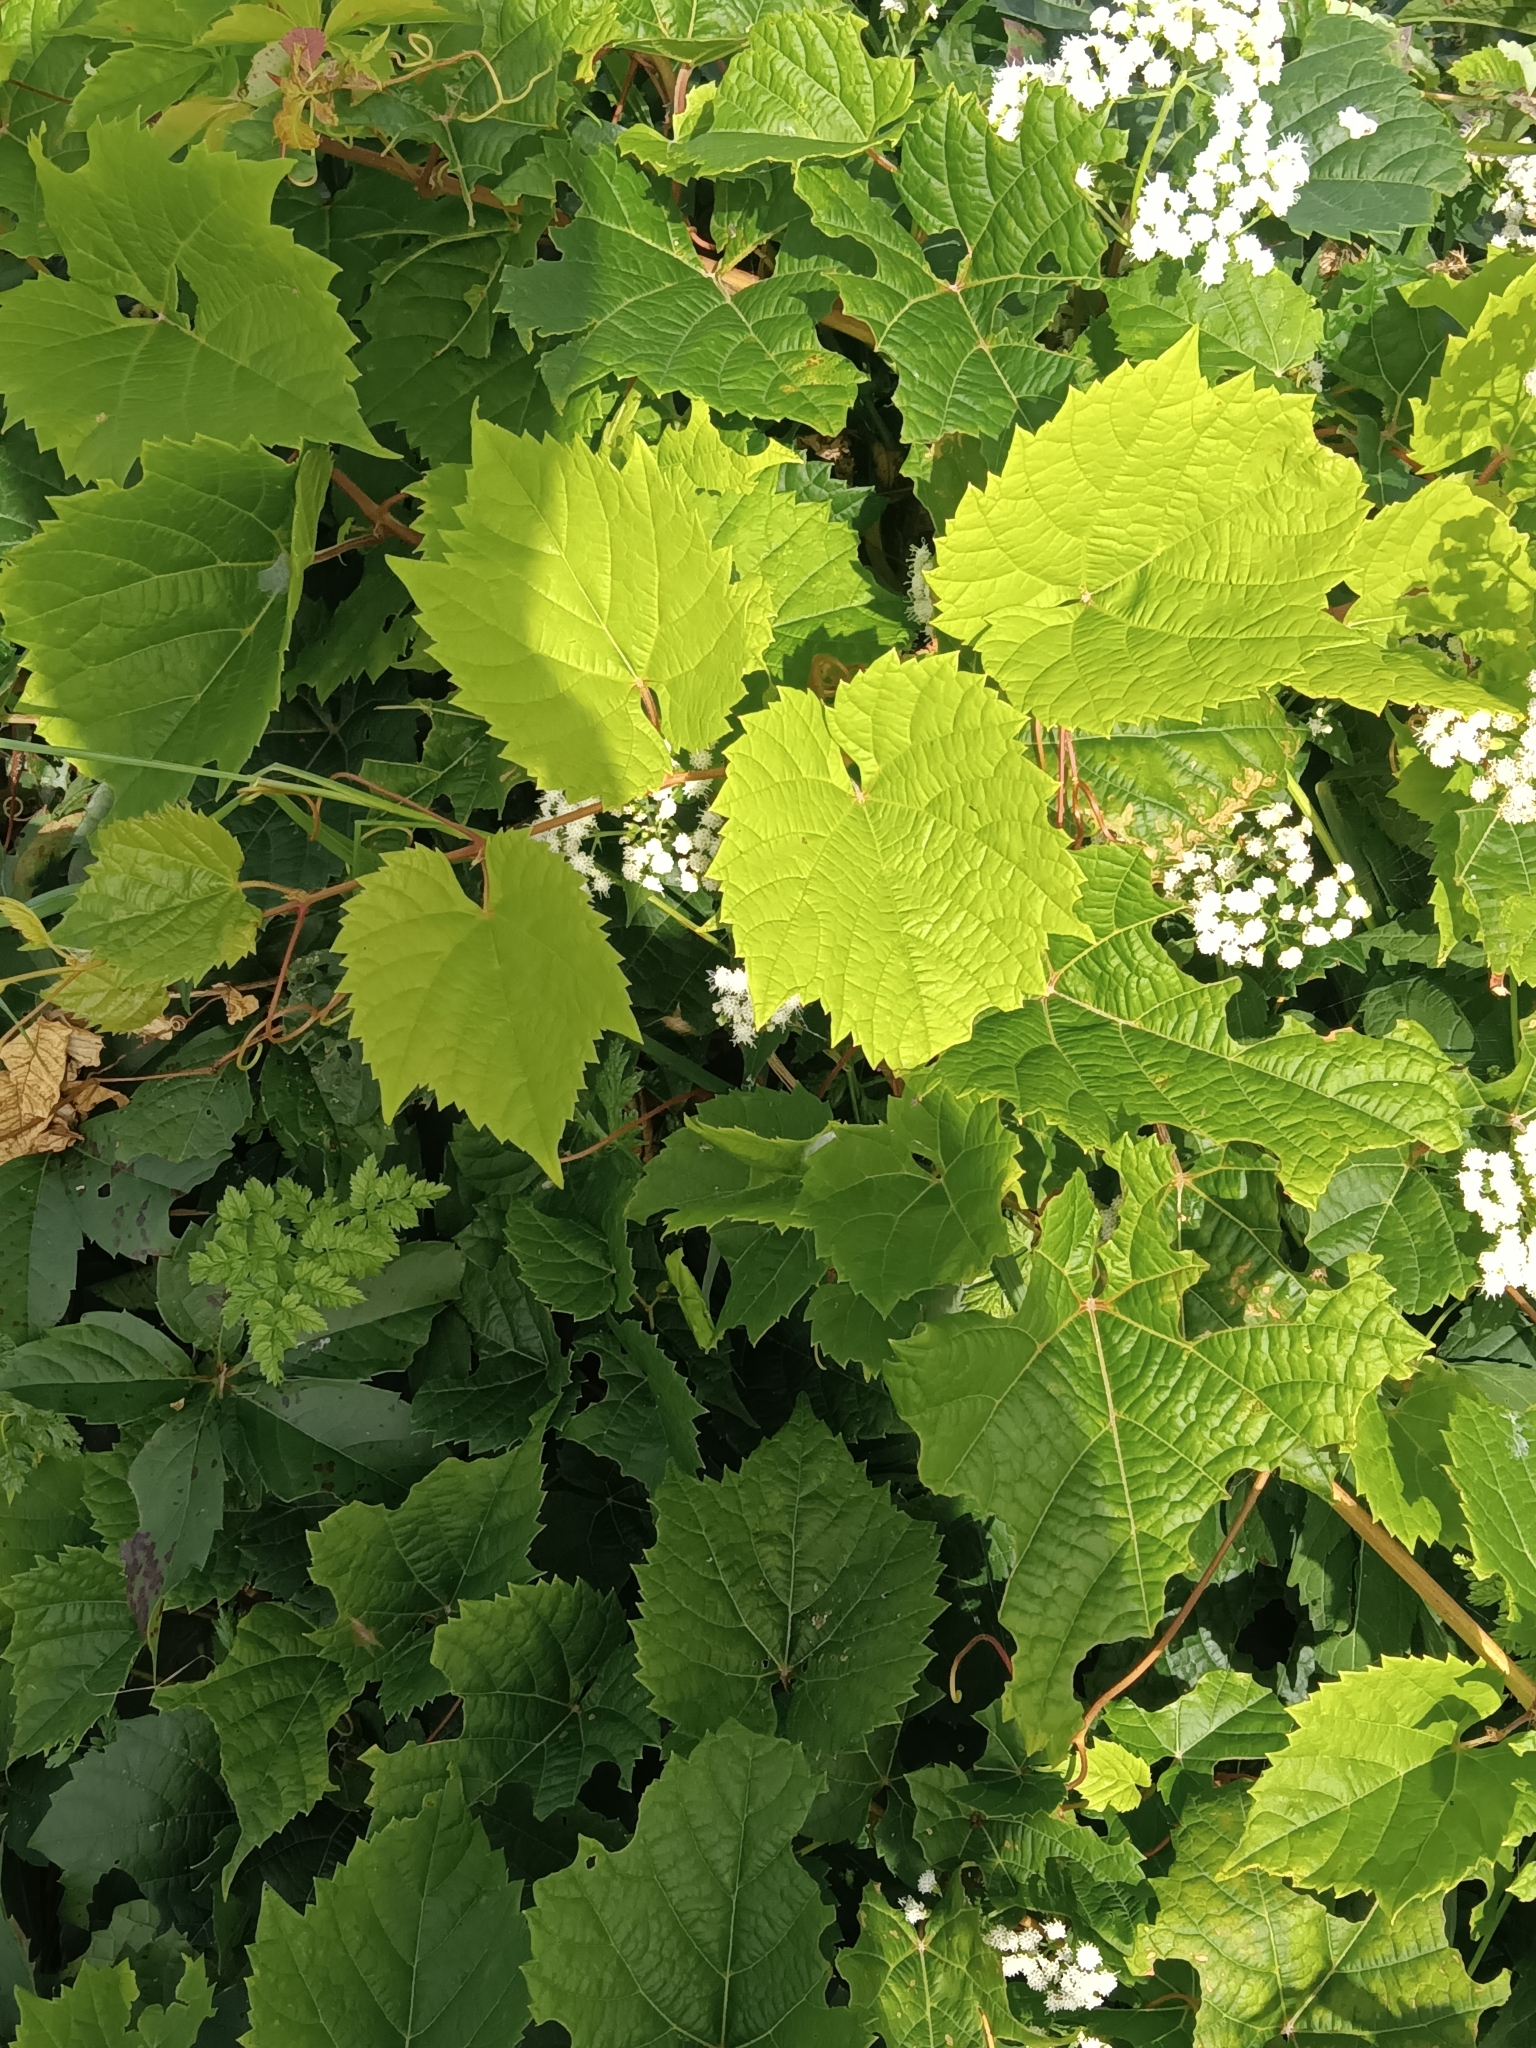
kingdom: Plantae
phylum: Tracheophyta
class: Magnoliopsida
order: Vitales
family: Vitaceae
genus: Vitis
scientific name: Vitis riparia
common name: Frost grape
